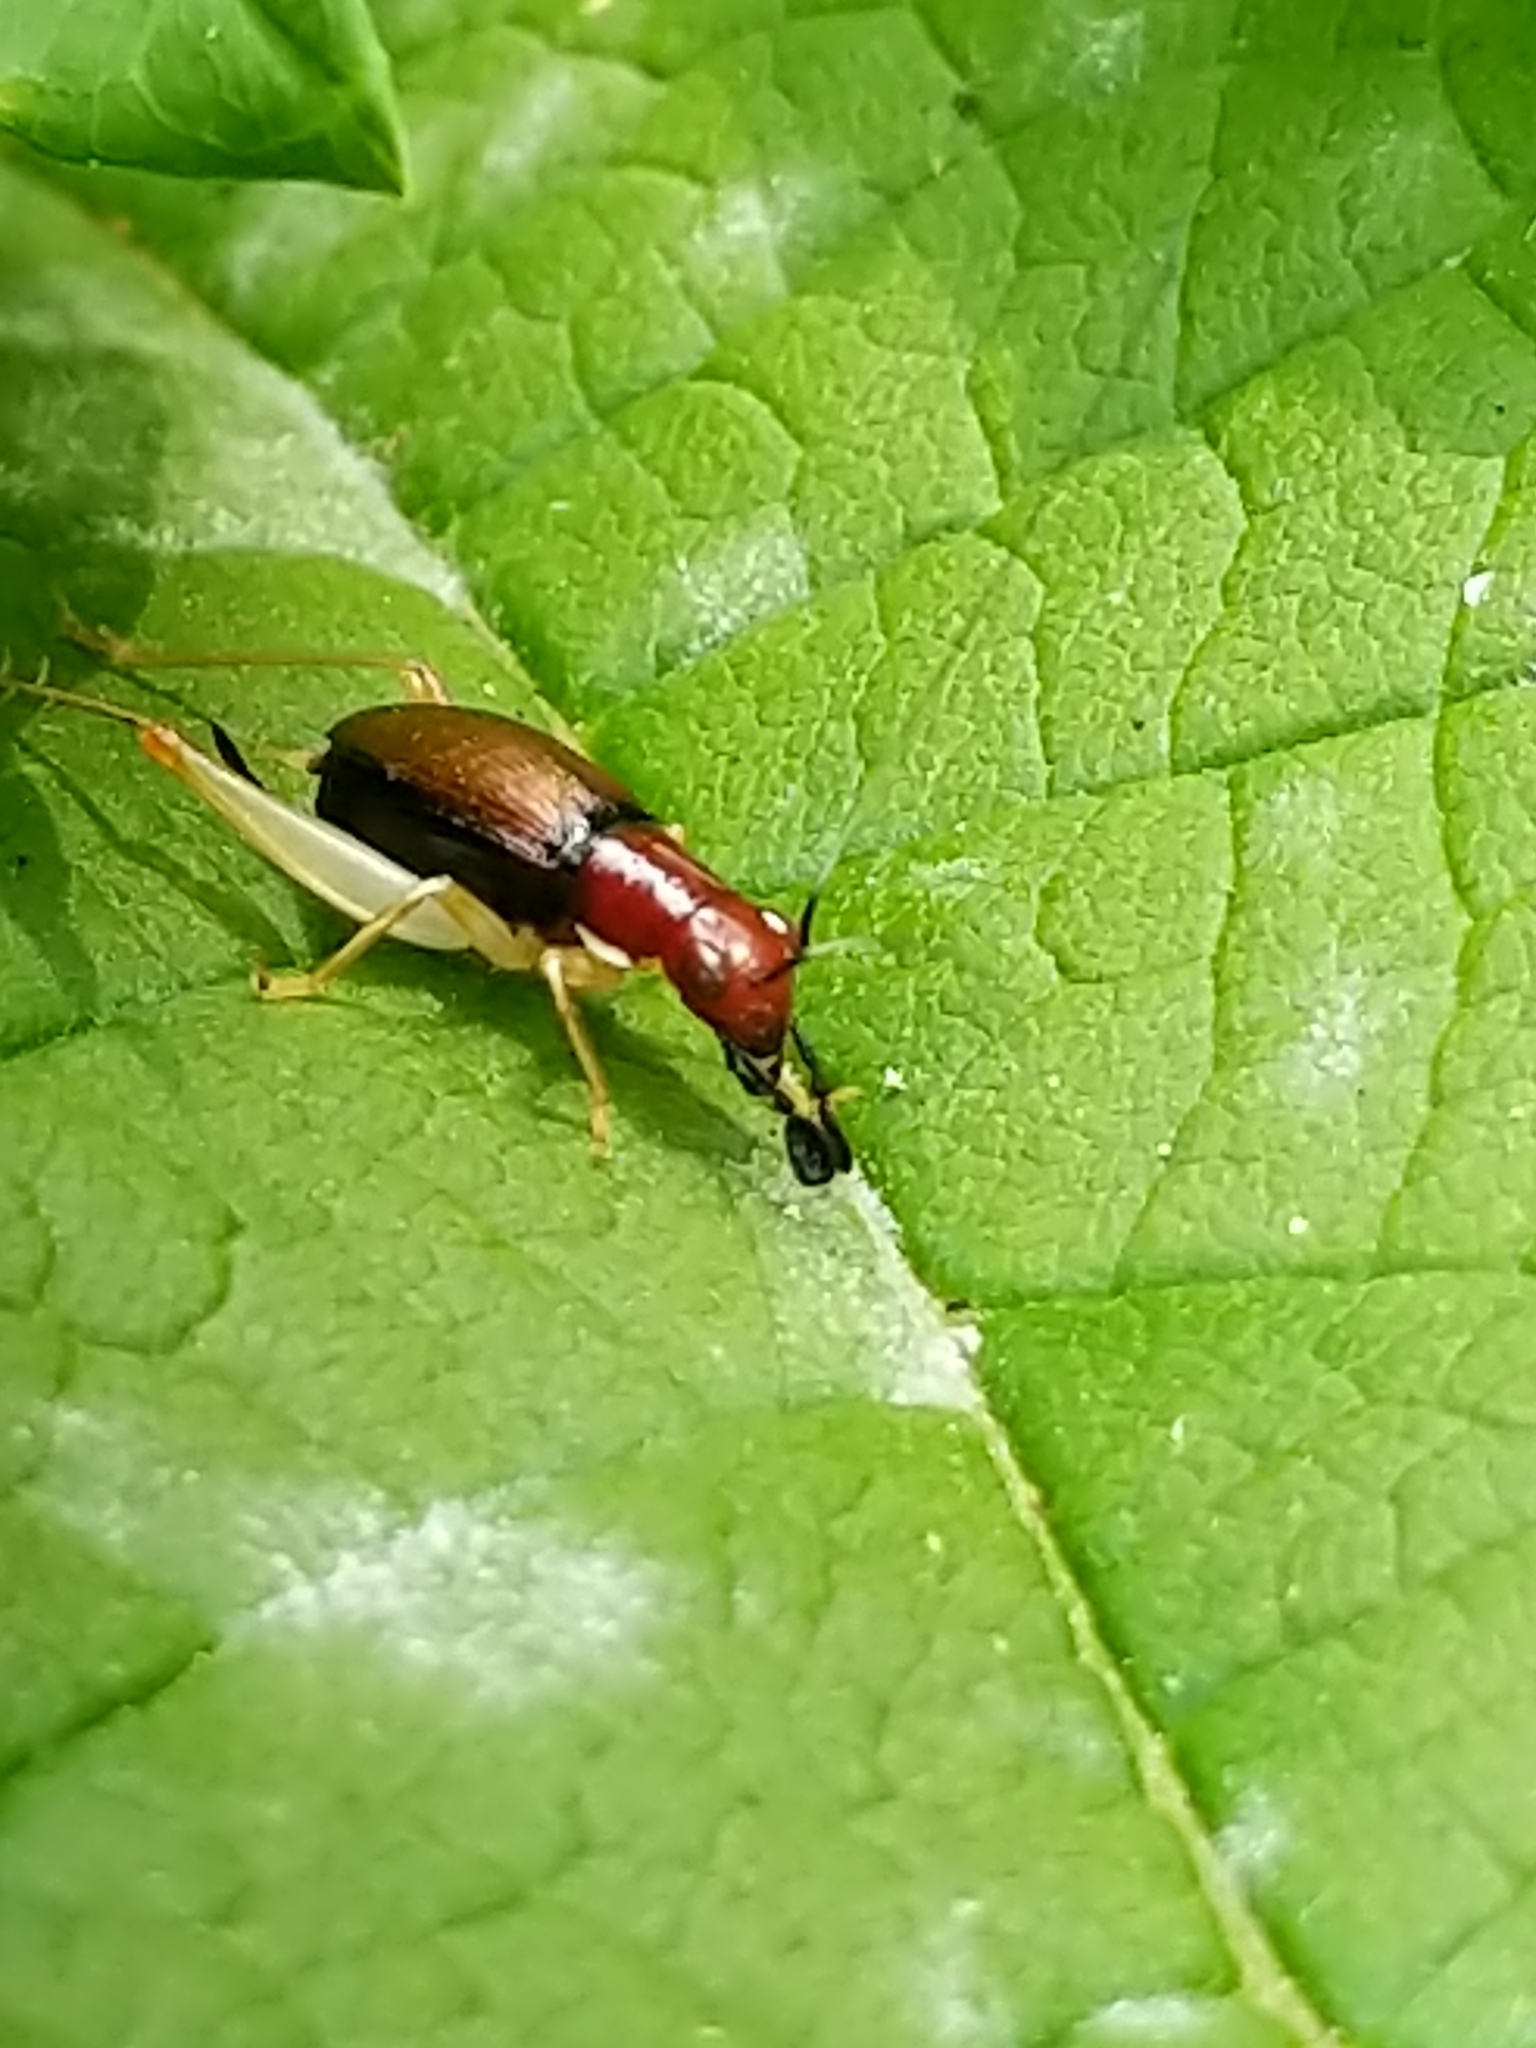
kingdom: Animalia
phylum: Arthropoda
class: Insecta
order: Orthoptera
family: Trigonidiidae
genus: Phyllopalpus
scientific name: Phyllopalpus pulchellus
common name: Handsome trig
